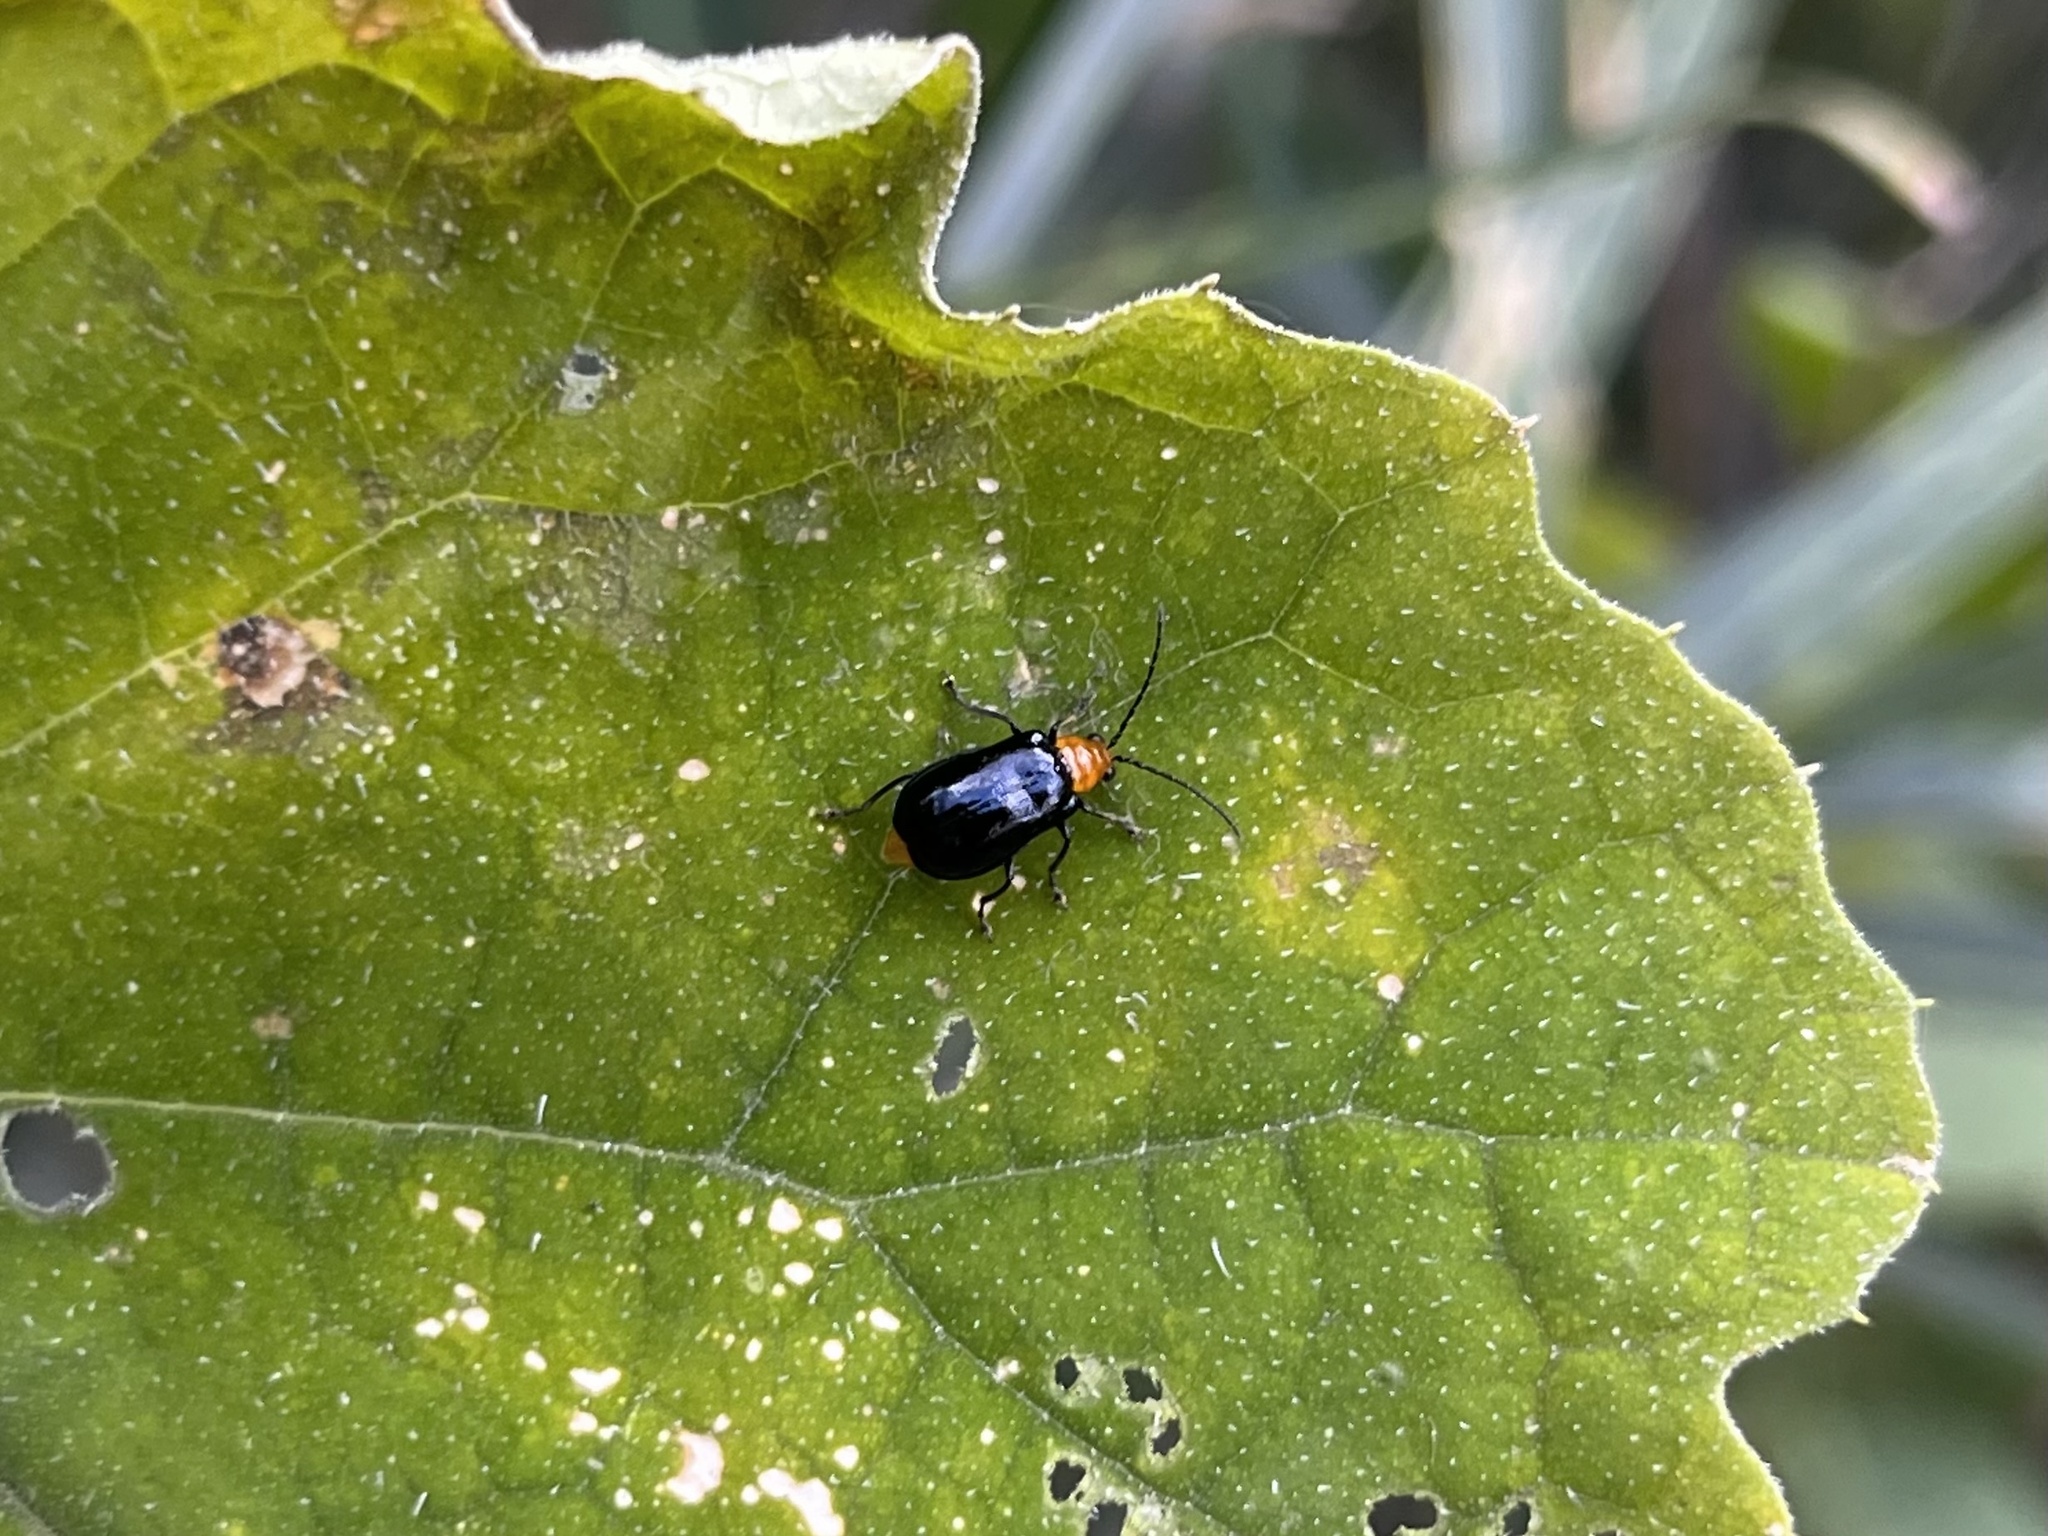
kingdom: Animalia
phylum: Arthropoda
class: Insecta
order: Coleoptera
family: Chrysomelidae
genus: Aulacophora
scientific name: Aulacophora nigripennis
